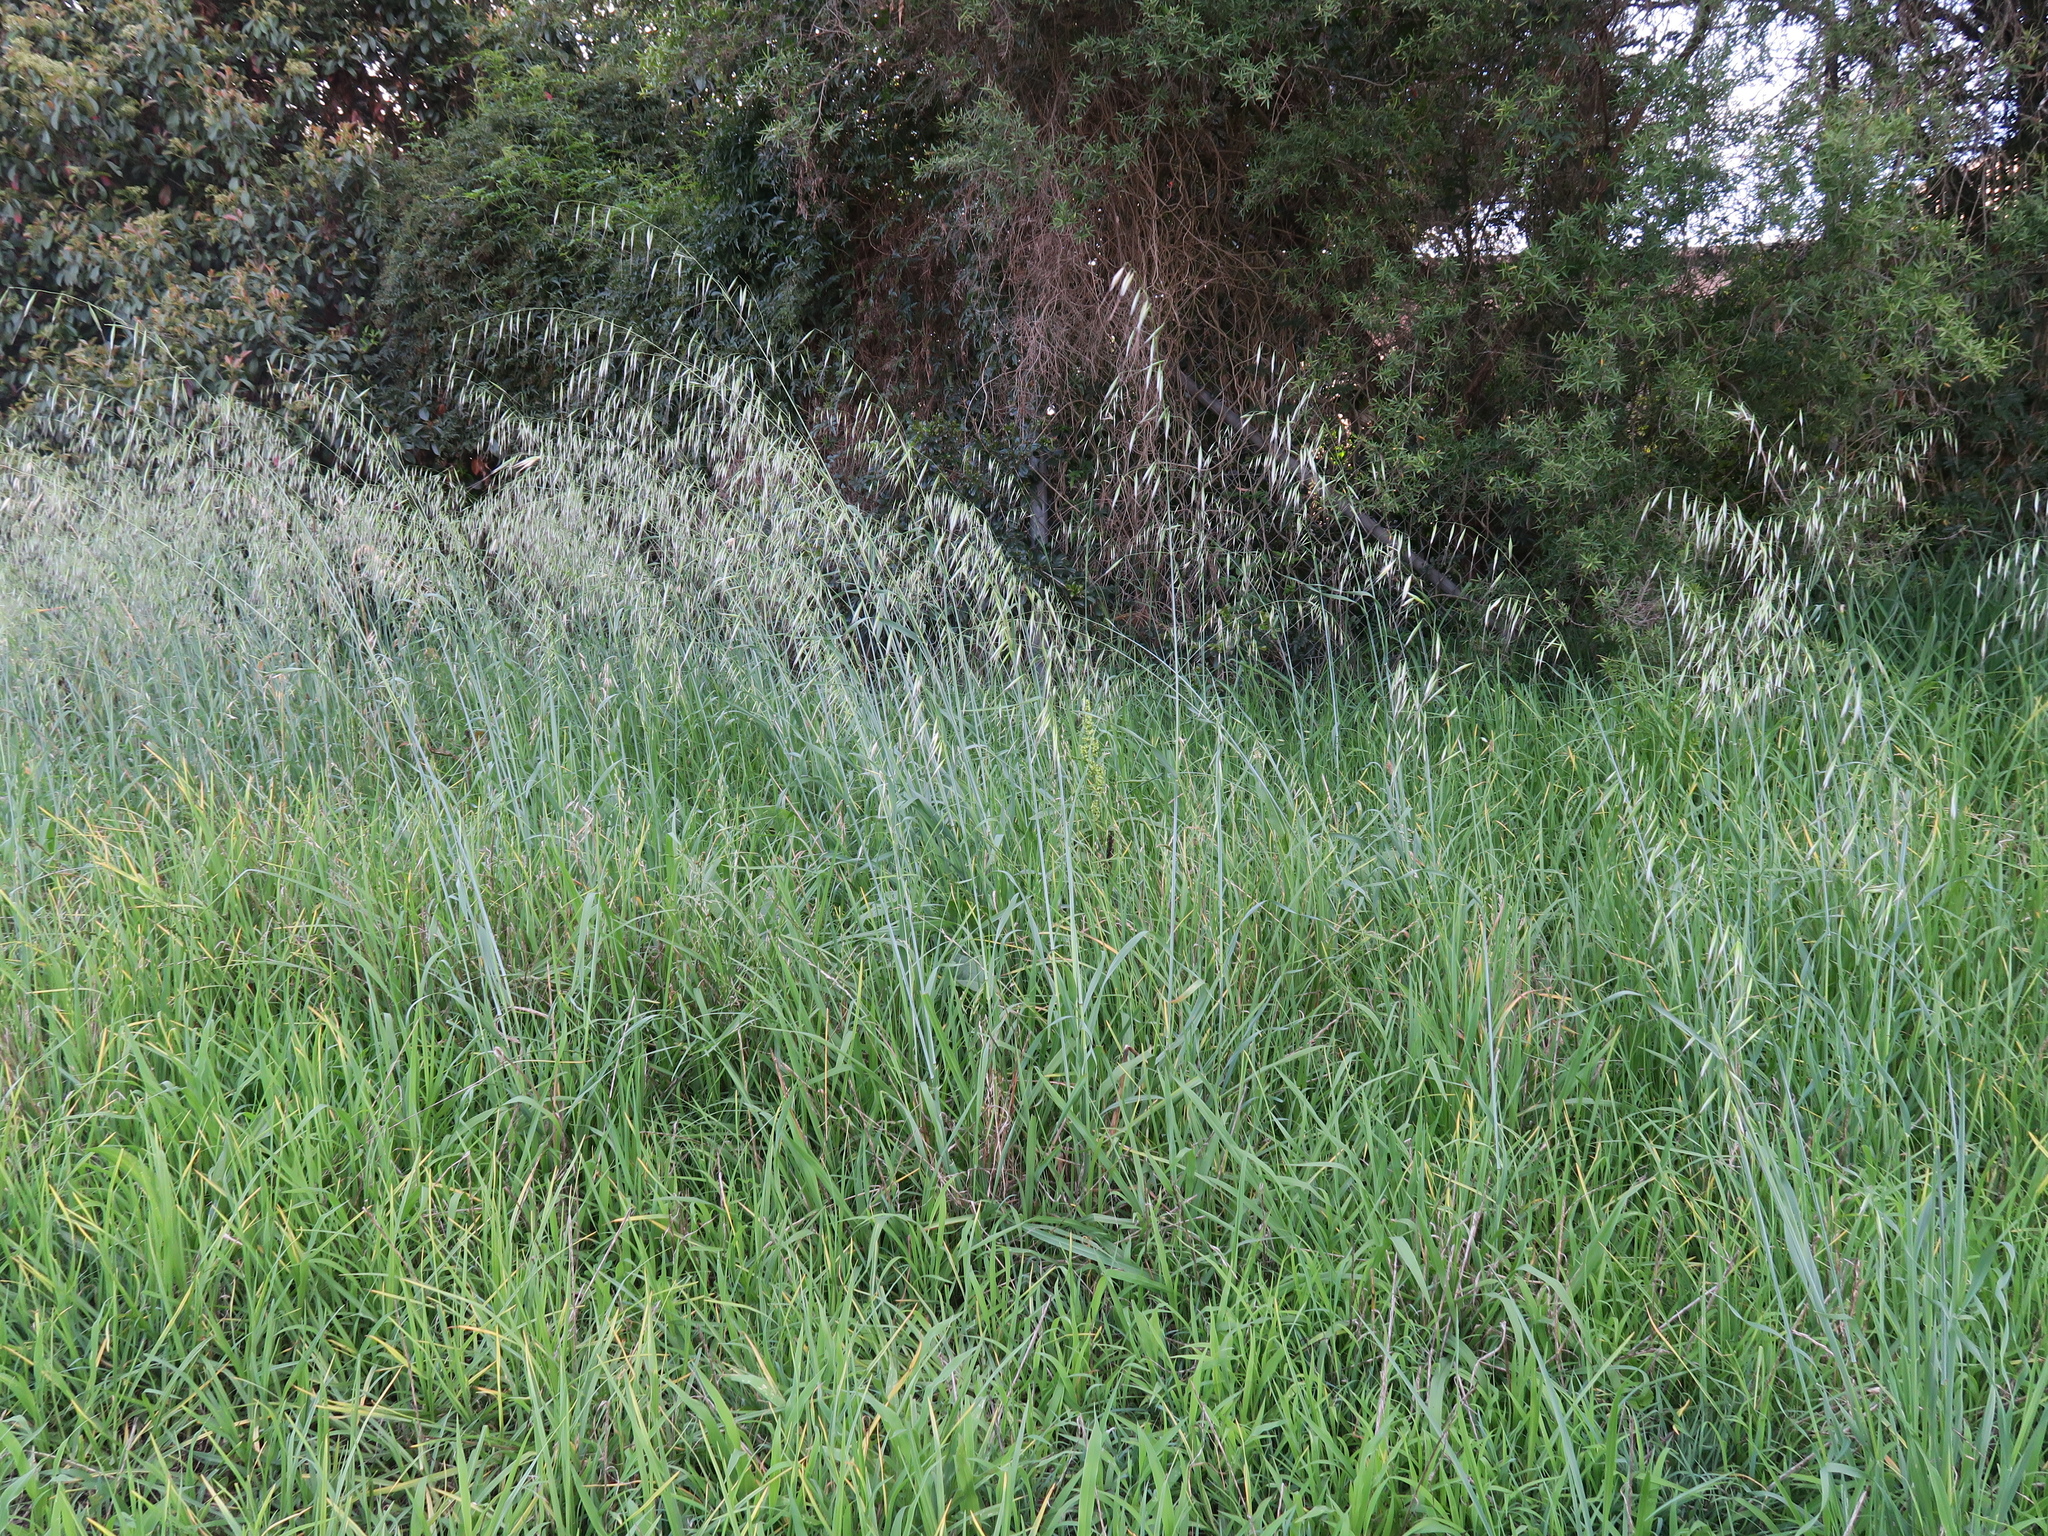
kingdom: Plantae
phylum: Tracheophyta
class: Liliopsida
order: Poales
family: Poaceae
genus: Avena
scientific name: Avena barbata
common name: Slender oat
